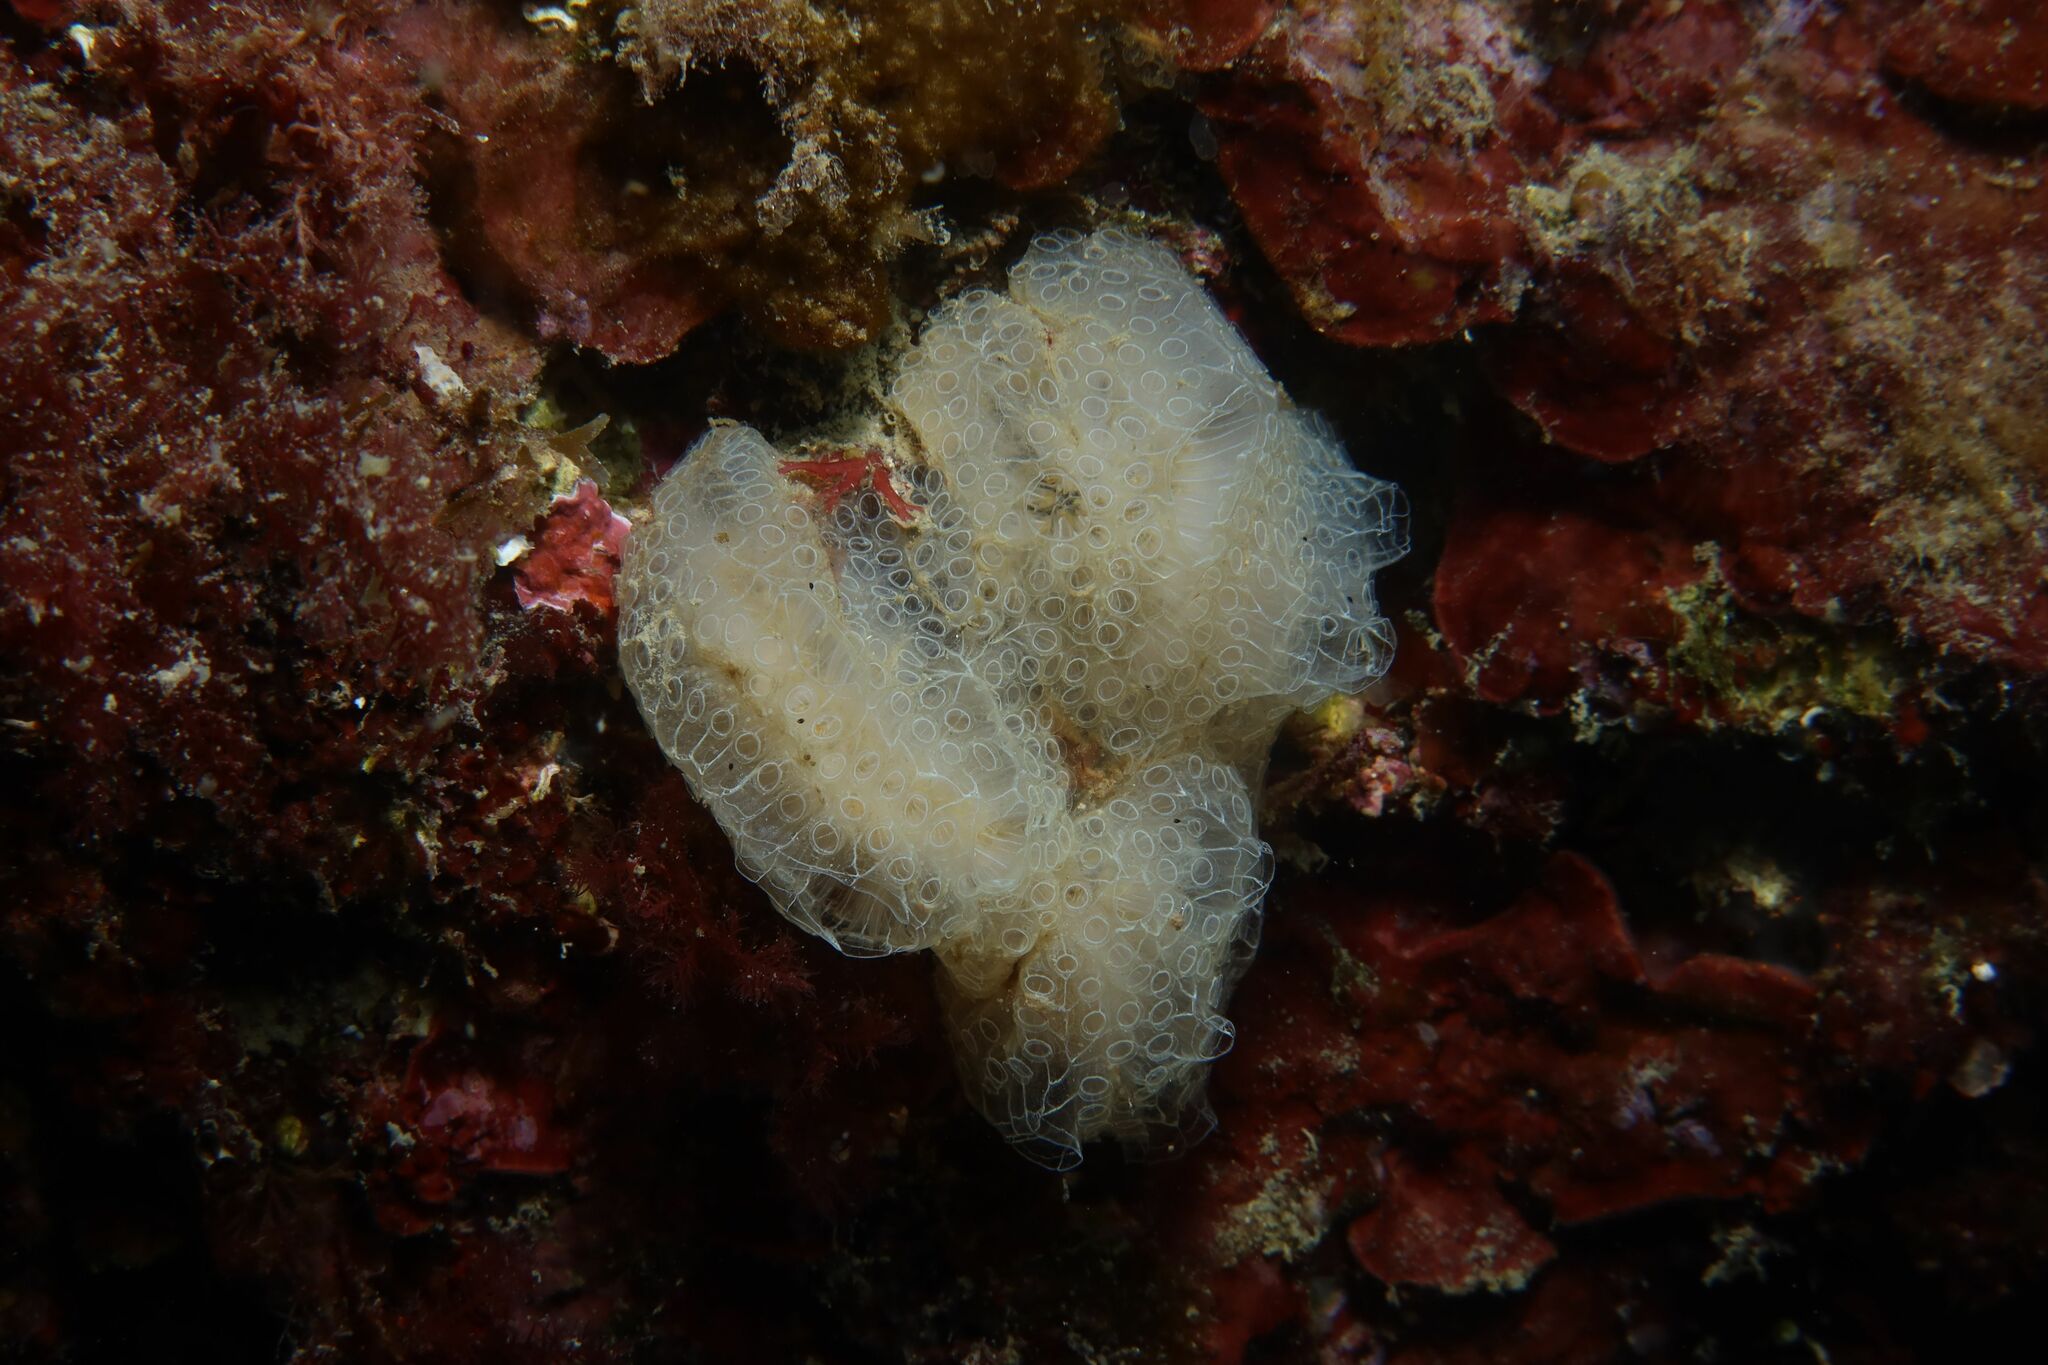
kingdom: Animalia
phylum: Chordata
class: Ascidiacea
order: Stolidobranchia
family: Styelidae
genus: Botrylloides
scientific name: Botrylloides crystallinus
